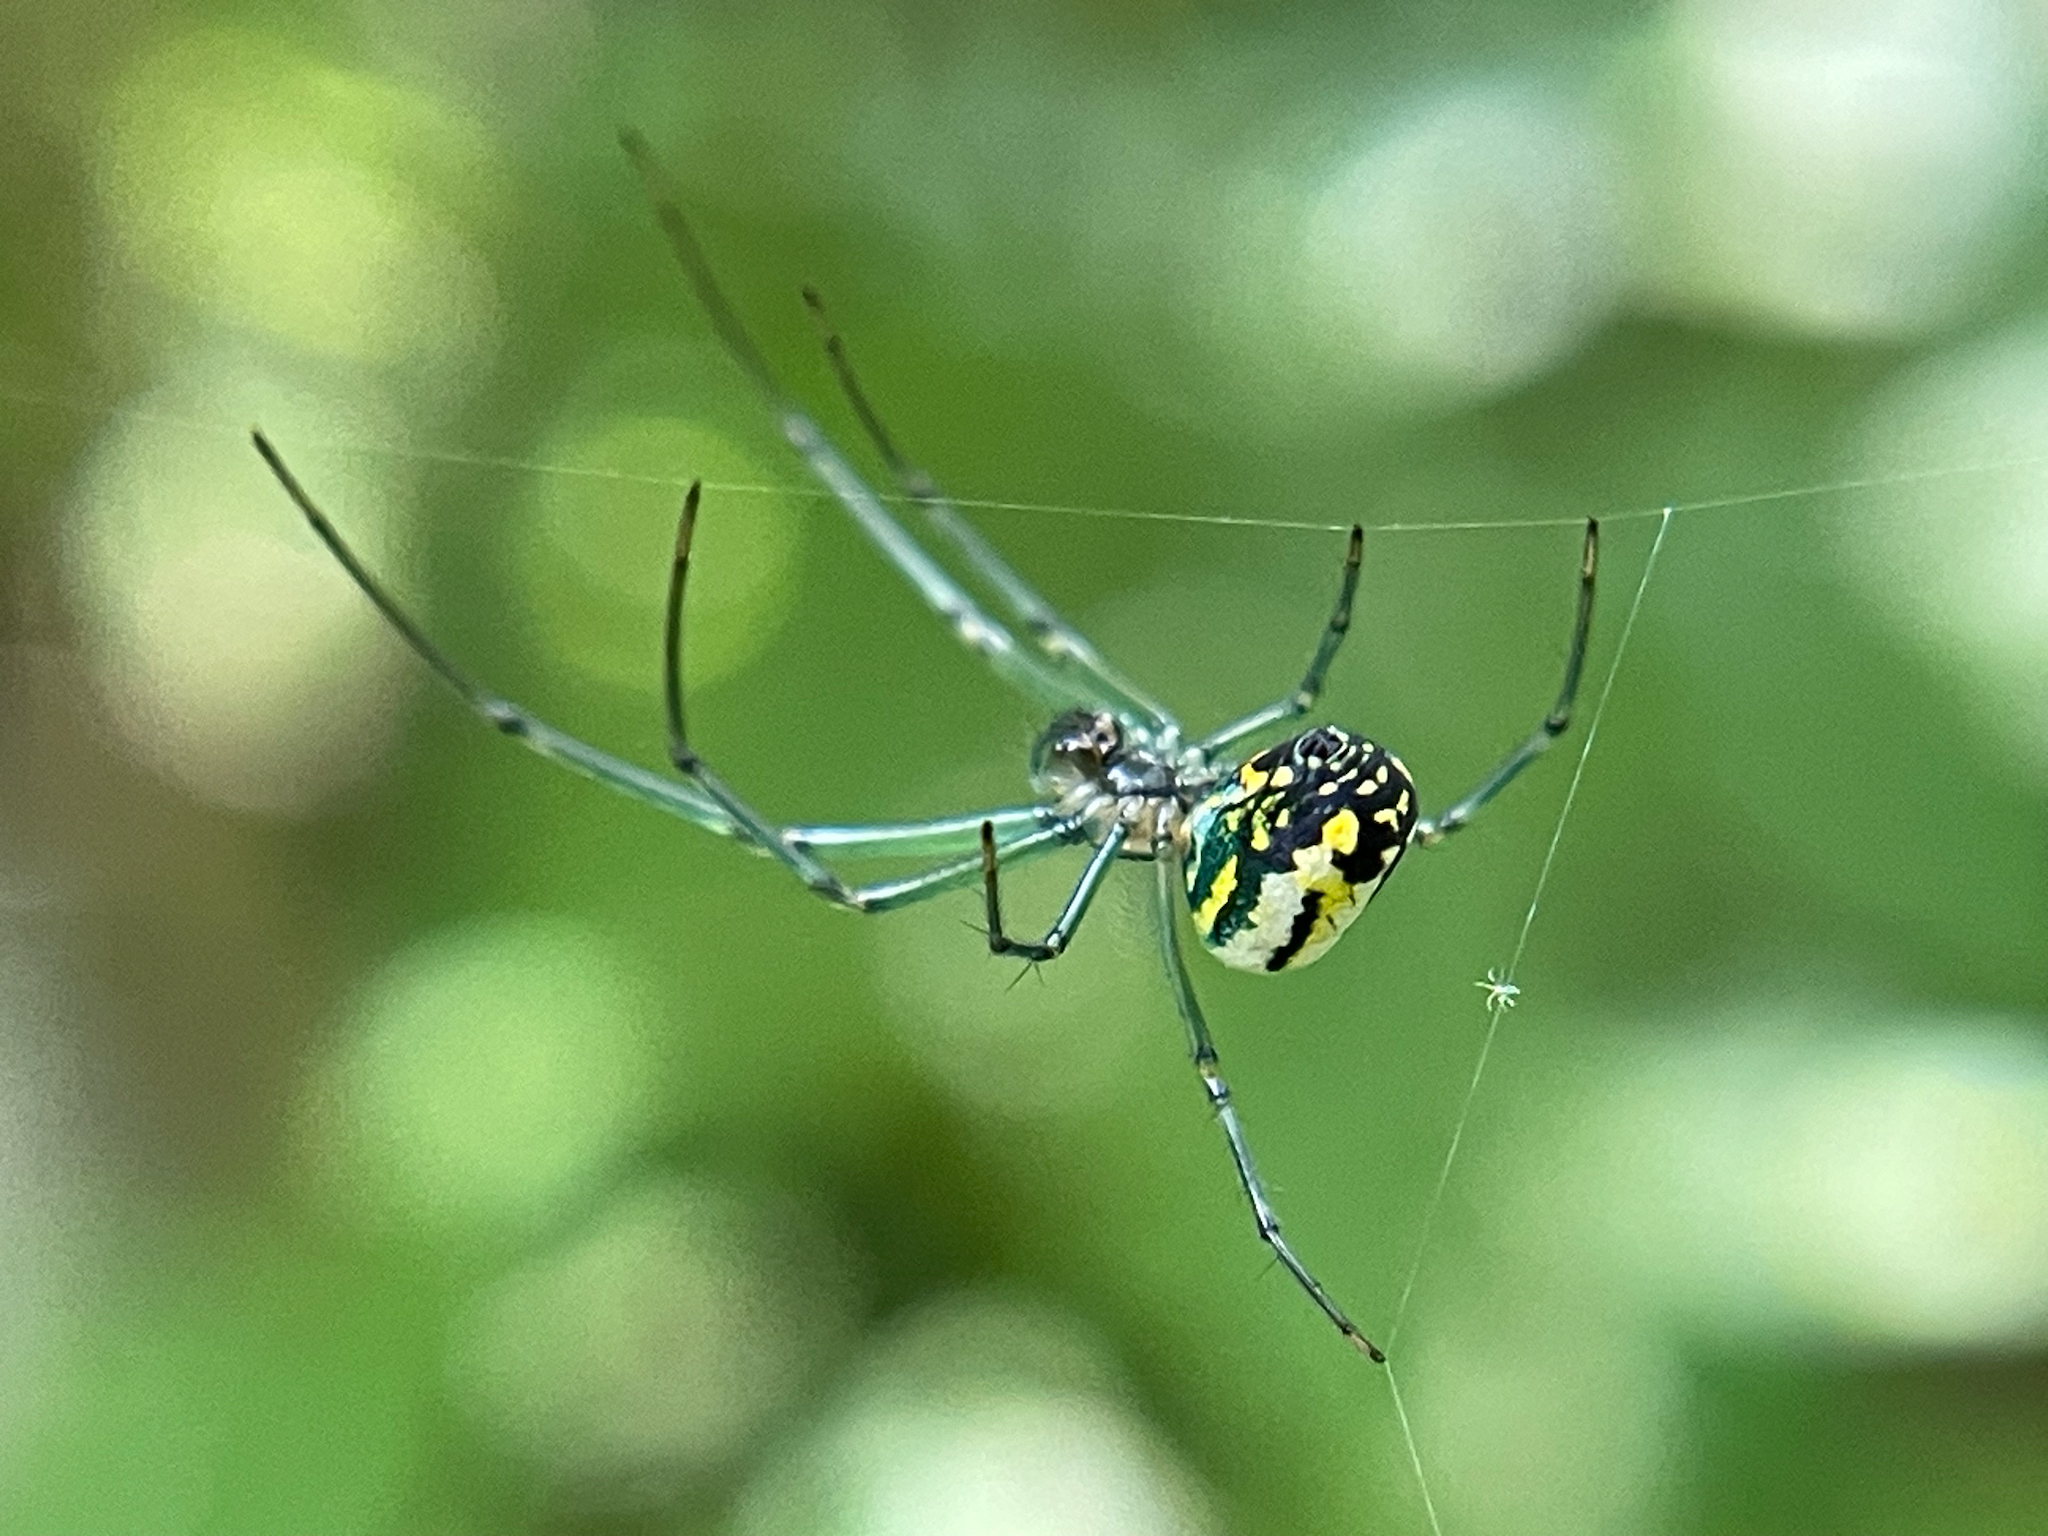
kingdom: Animalia
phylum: Arthropoda
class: Arachnida
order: Araneae
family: Tetragnathidae
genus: Leucauge
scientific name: Leucauge venusta
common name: Longjawed orb weavers
